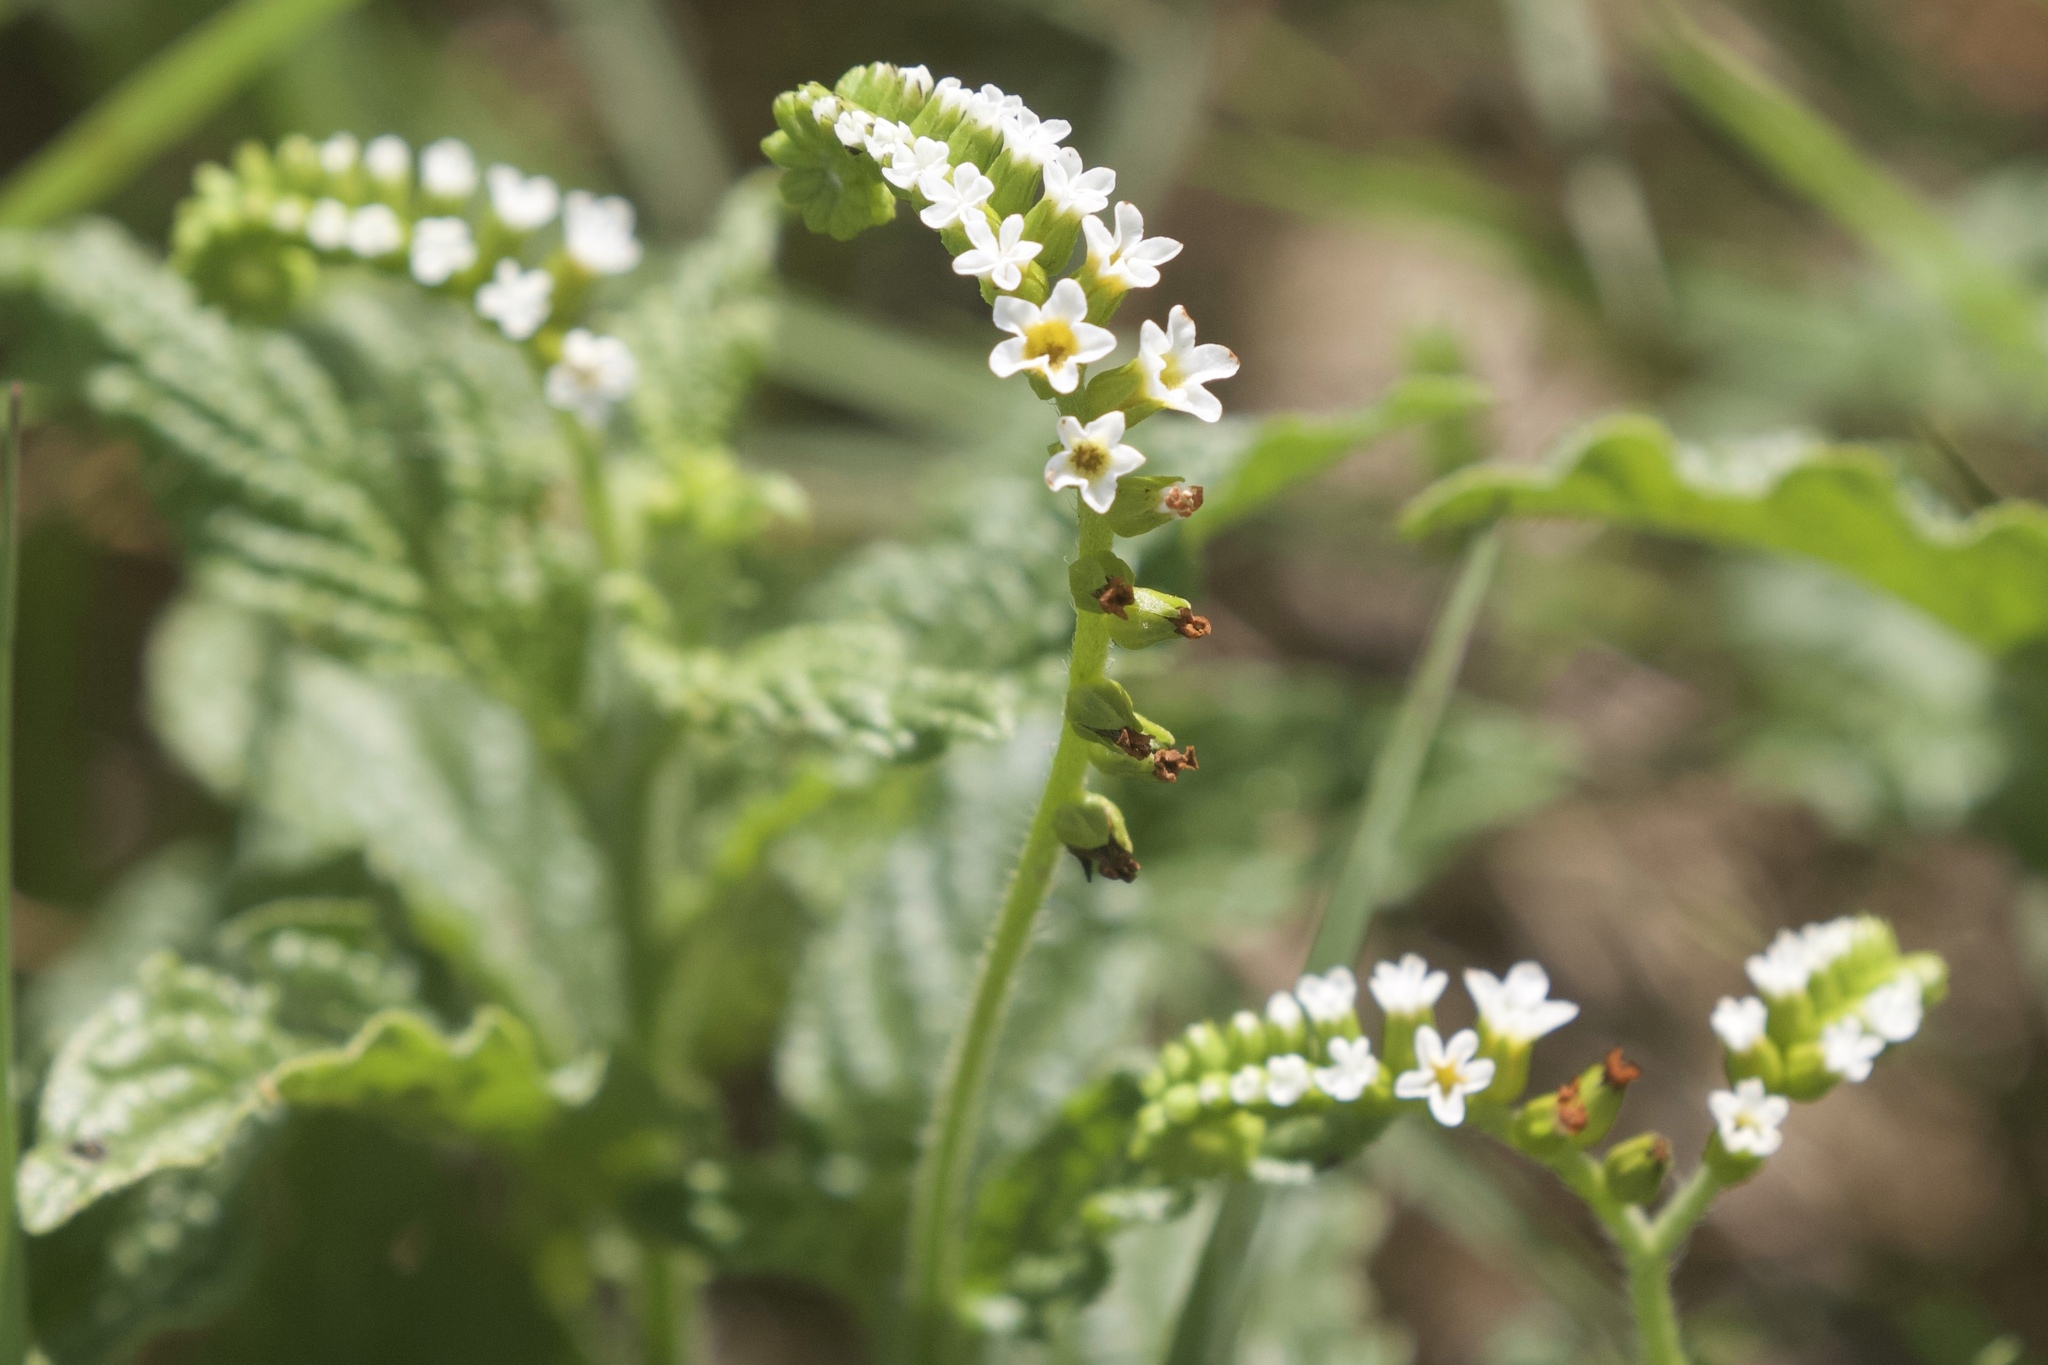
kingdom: Plantae
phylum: Tracheophyta
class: Magnoliopsida
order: Boraginales
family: Heliotropiaceae
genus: Heliotropium
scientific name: Heliotropium angiospermum
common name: Eye bright
